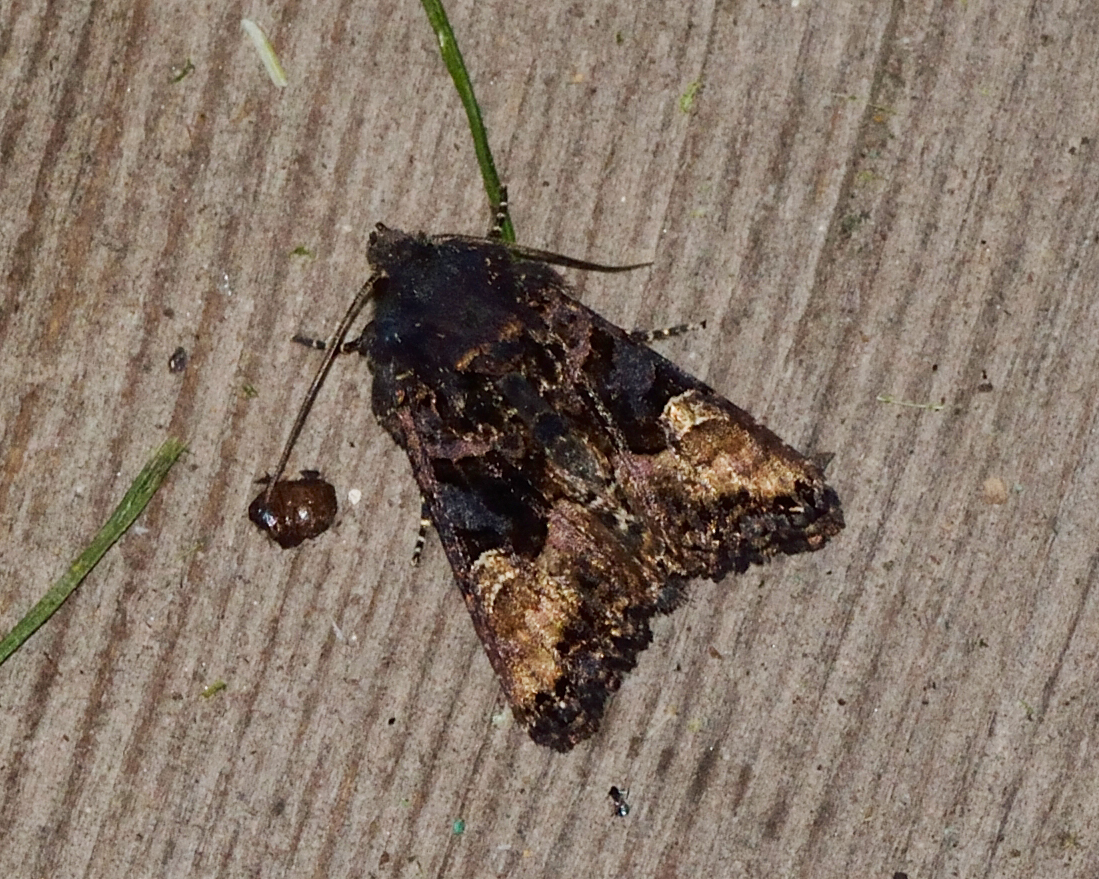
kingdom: Animalia
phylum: Arthropoda
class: Insecta
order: Lepidoptera
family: Noctuidae
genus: Euplexia
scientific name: Euplexia lucipara
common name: Small angle shades
